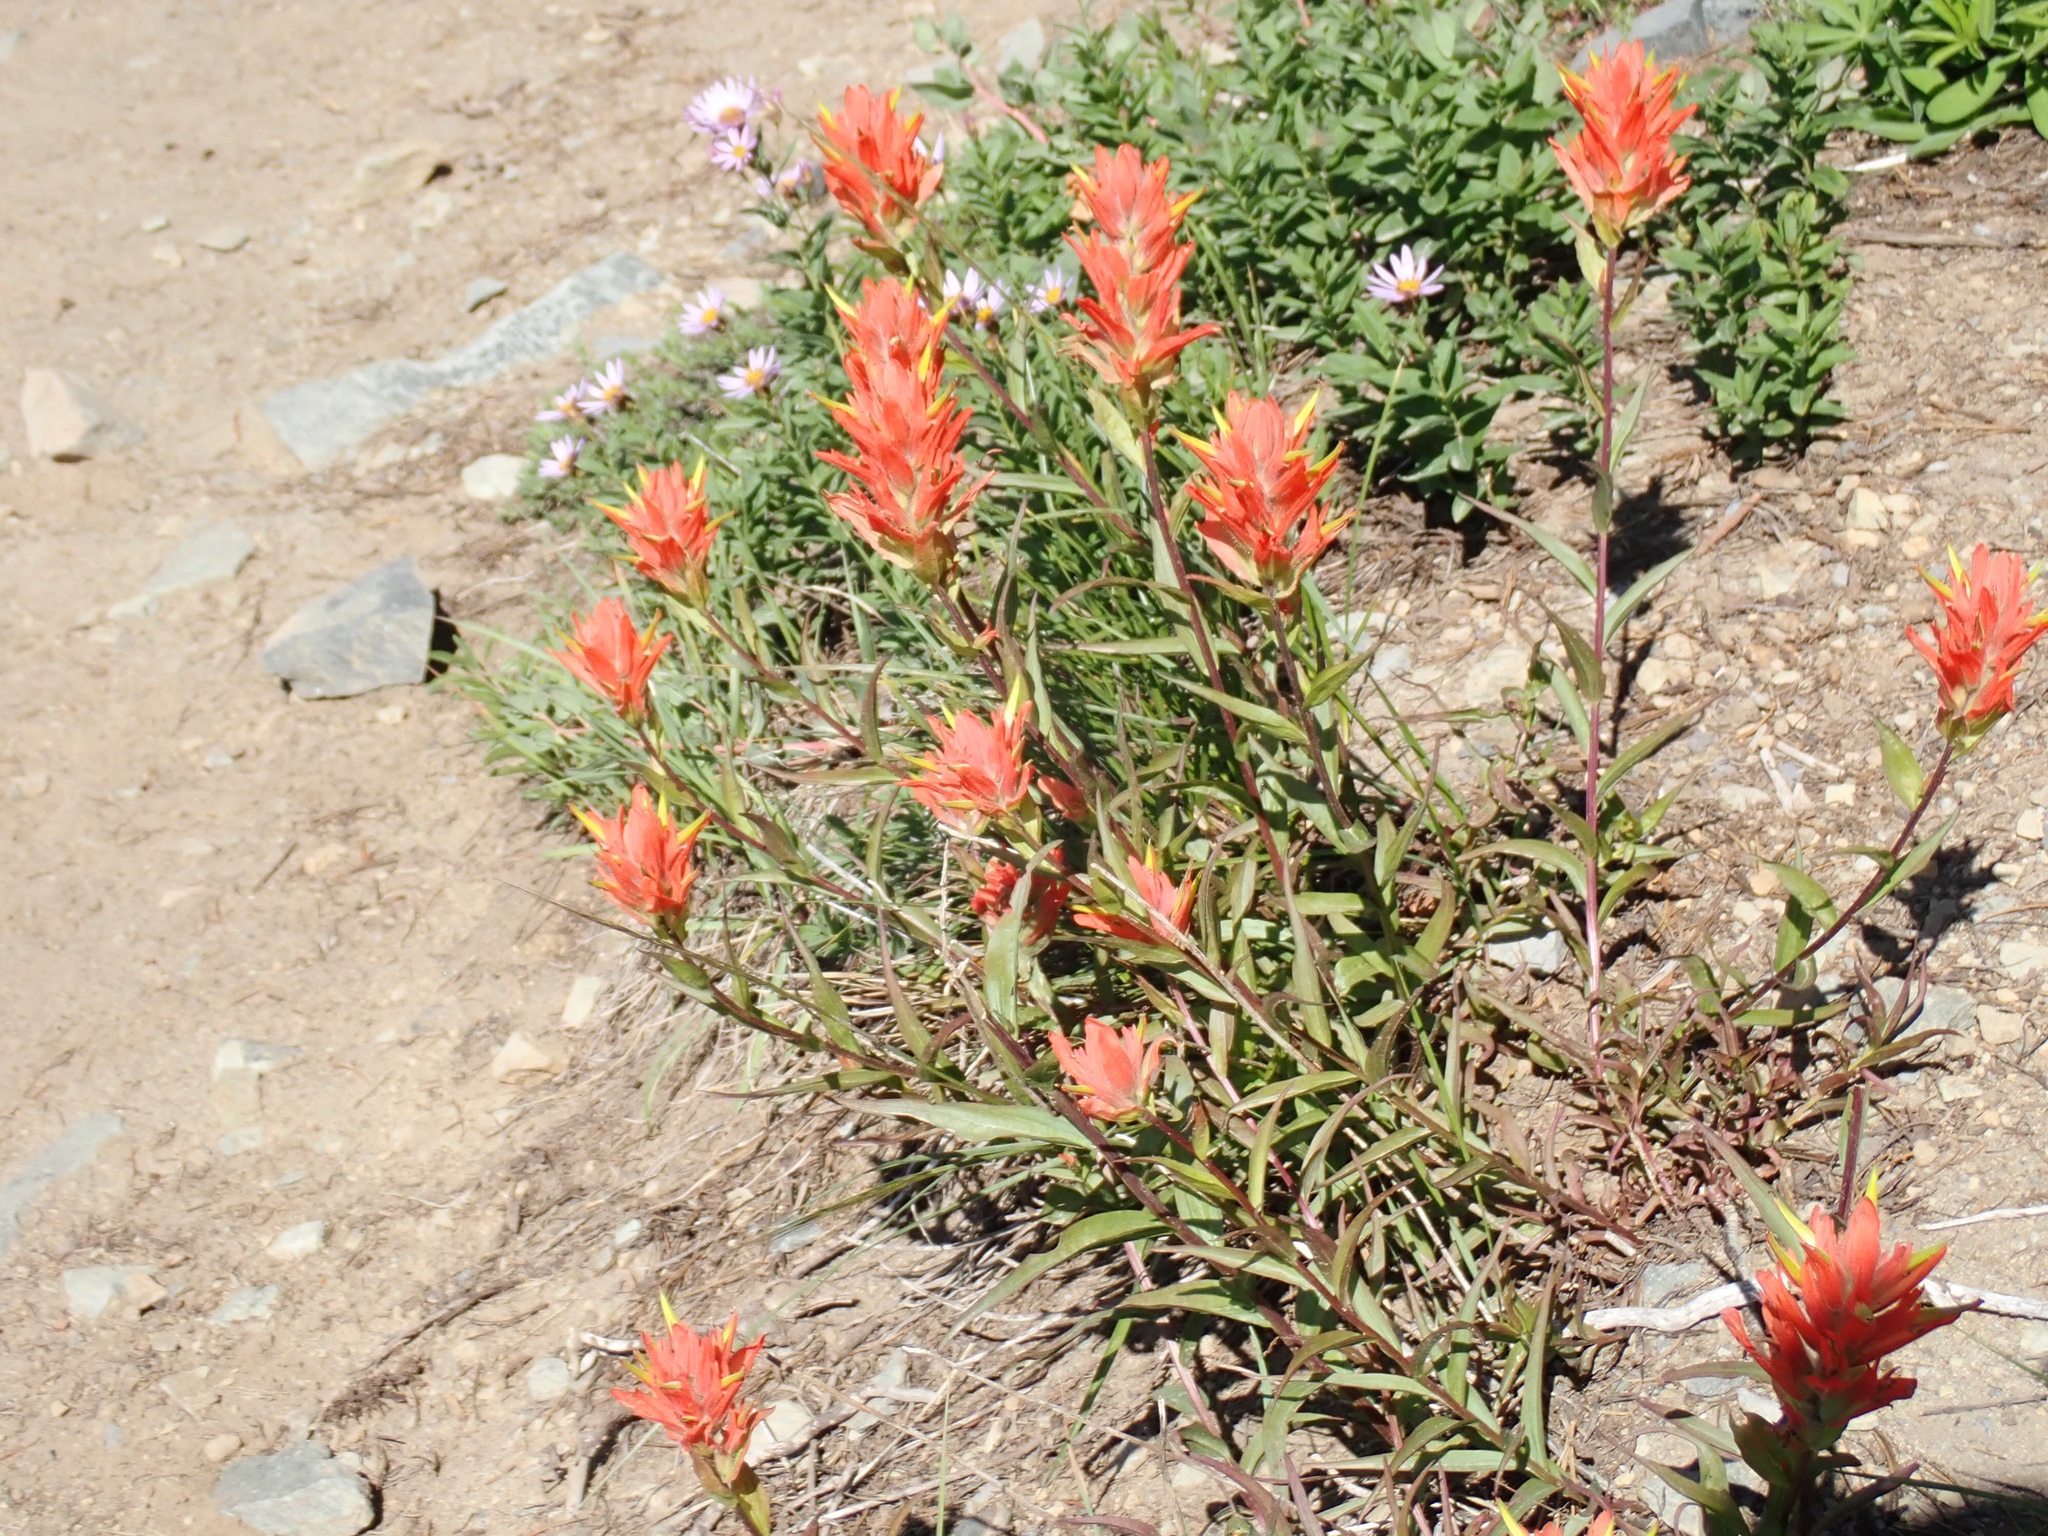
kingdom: Plantae
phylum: Tracheophyta
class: Magnoliopsida
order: Lamiales
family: Orobanchaceae
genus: Castilleja
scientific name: Castilleja miniata
